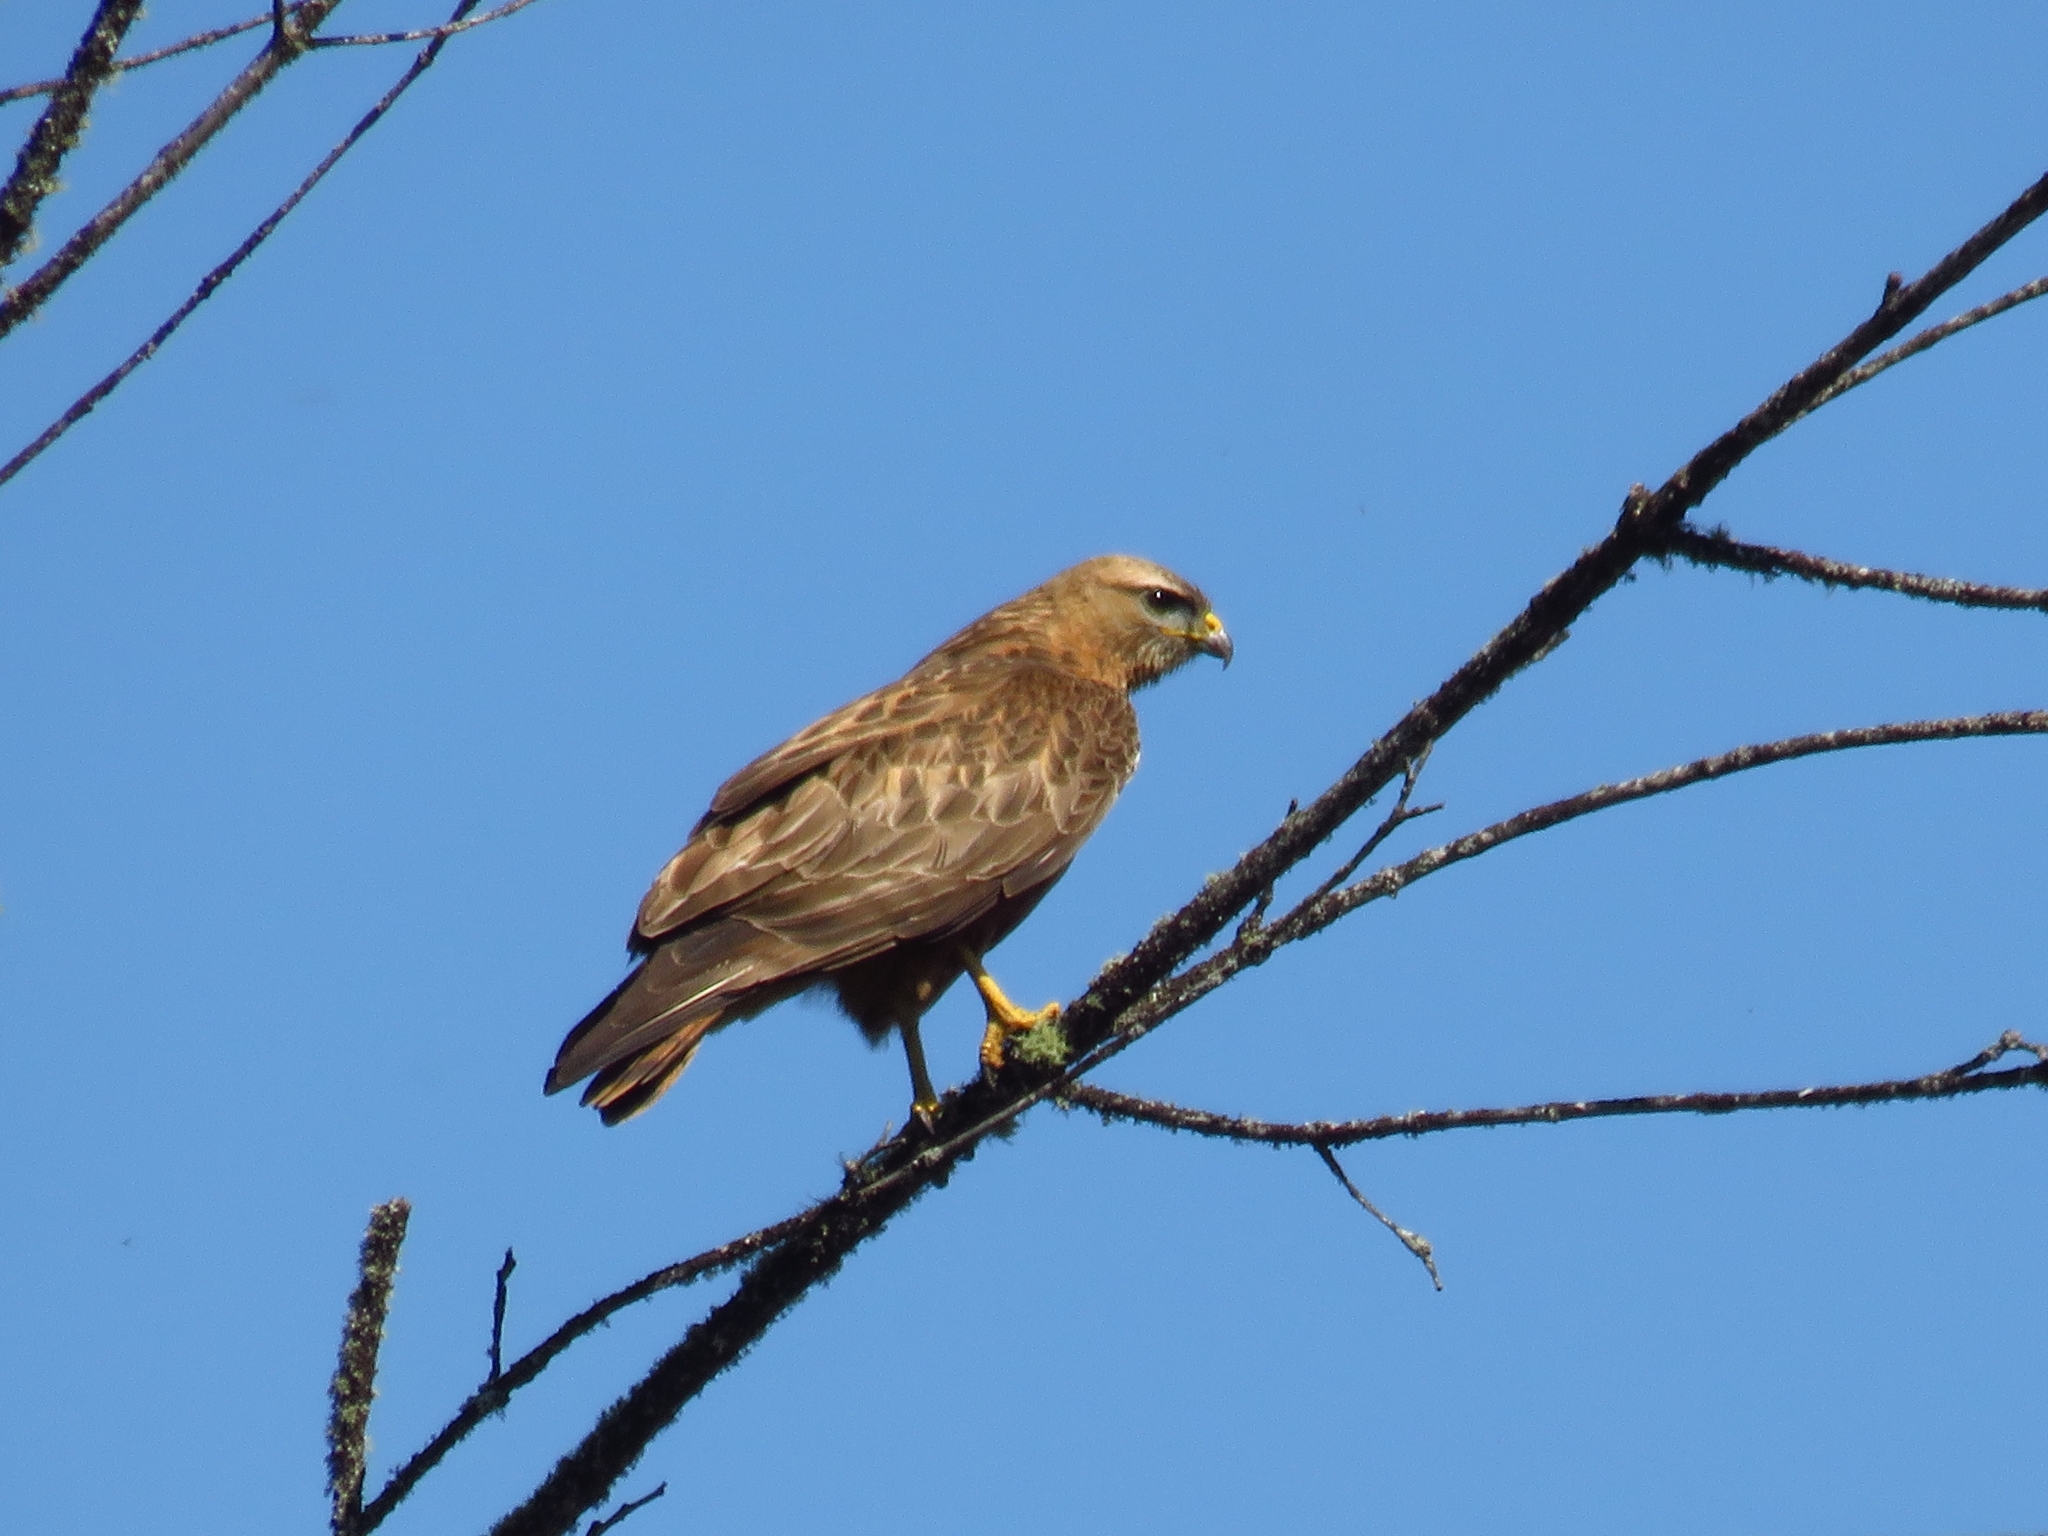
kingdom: Animalia
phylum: Chordata
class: Aves
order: Accipitriformes
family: Accipitridae
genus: Buteo
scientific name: Buteo buteo
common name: Common buzzard
